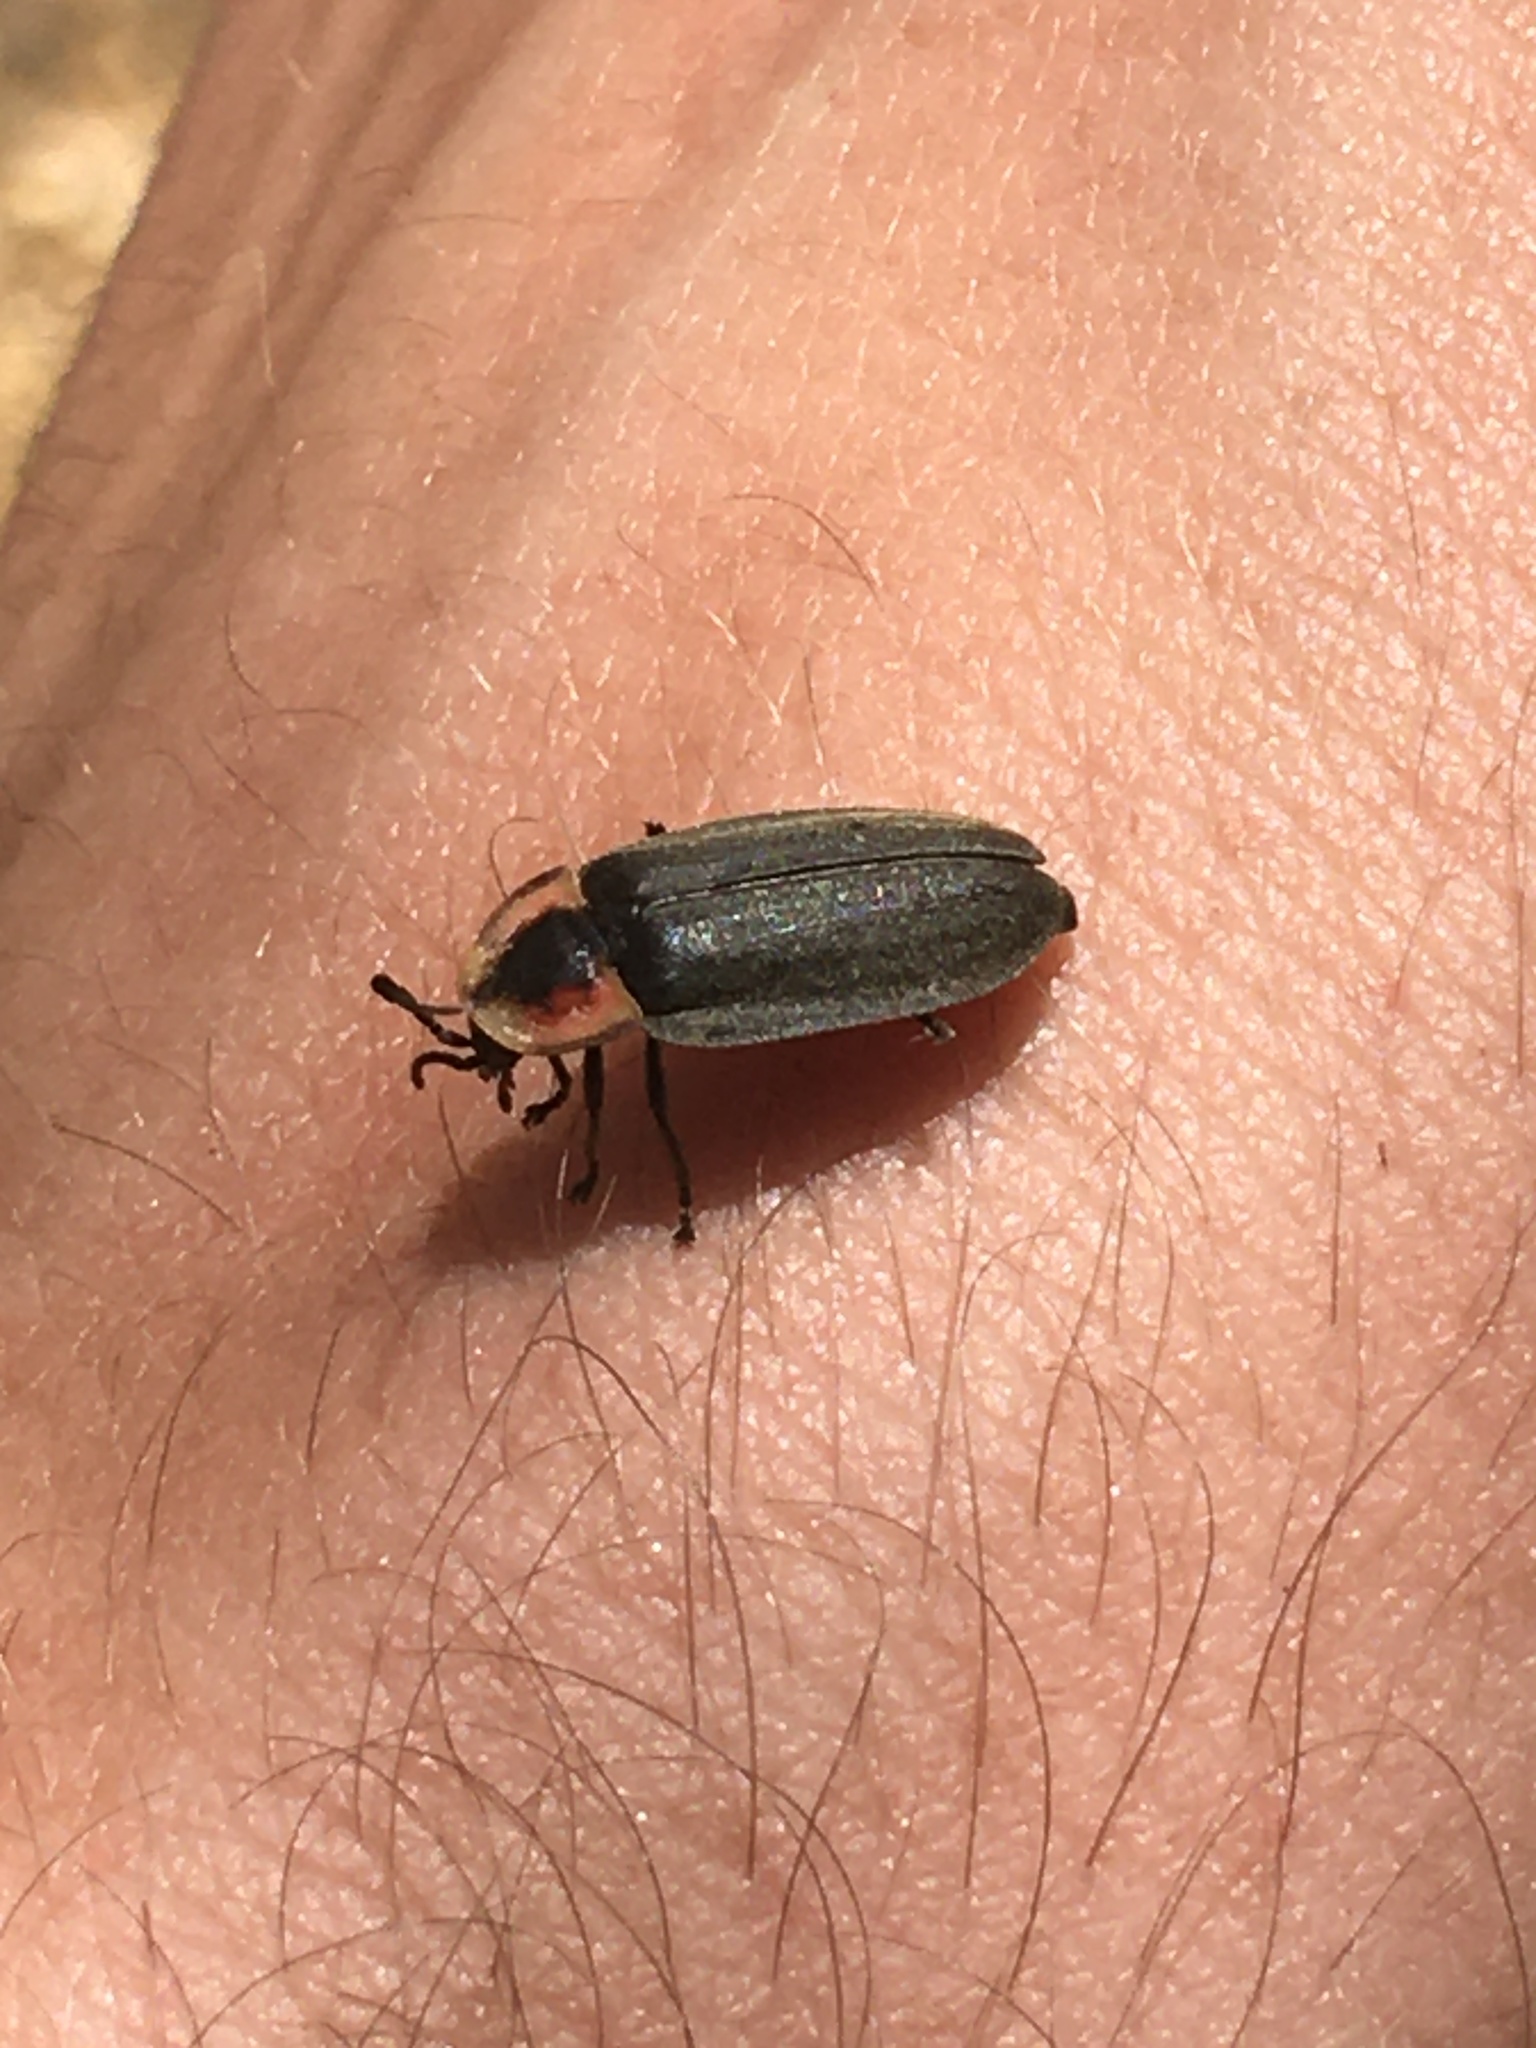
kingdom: Animalia
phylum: Arthropoda
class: Insecta
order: Coleoptera
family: Lampyridae
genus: Photinus
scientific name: Photinus corrusca
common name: Winter firefly
